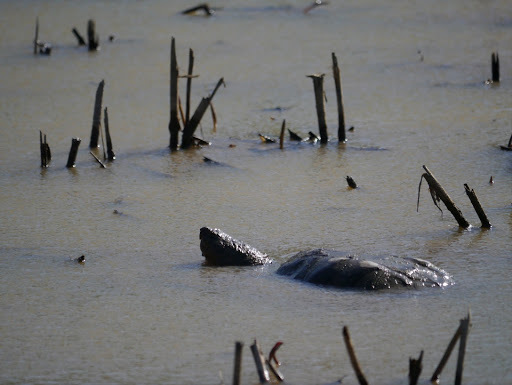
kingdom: Animalia
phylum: Chordata
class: Testudines
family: Chelydridae
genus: Chelydra
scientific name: Chelydra serpentina
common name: Common snapping turtle
